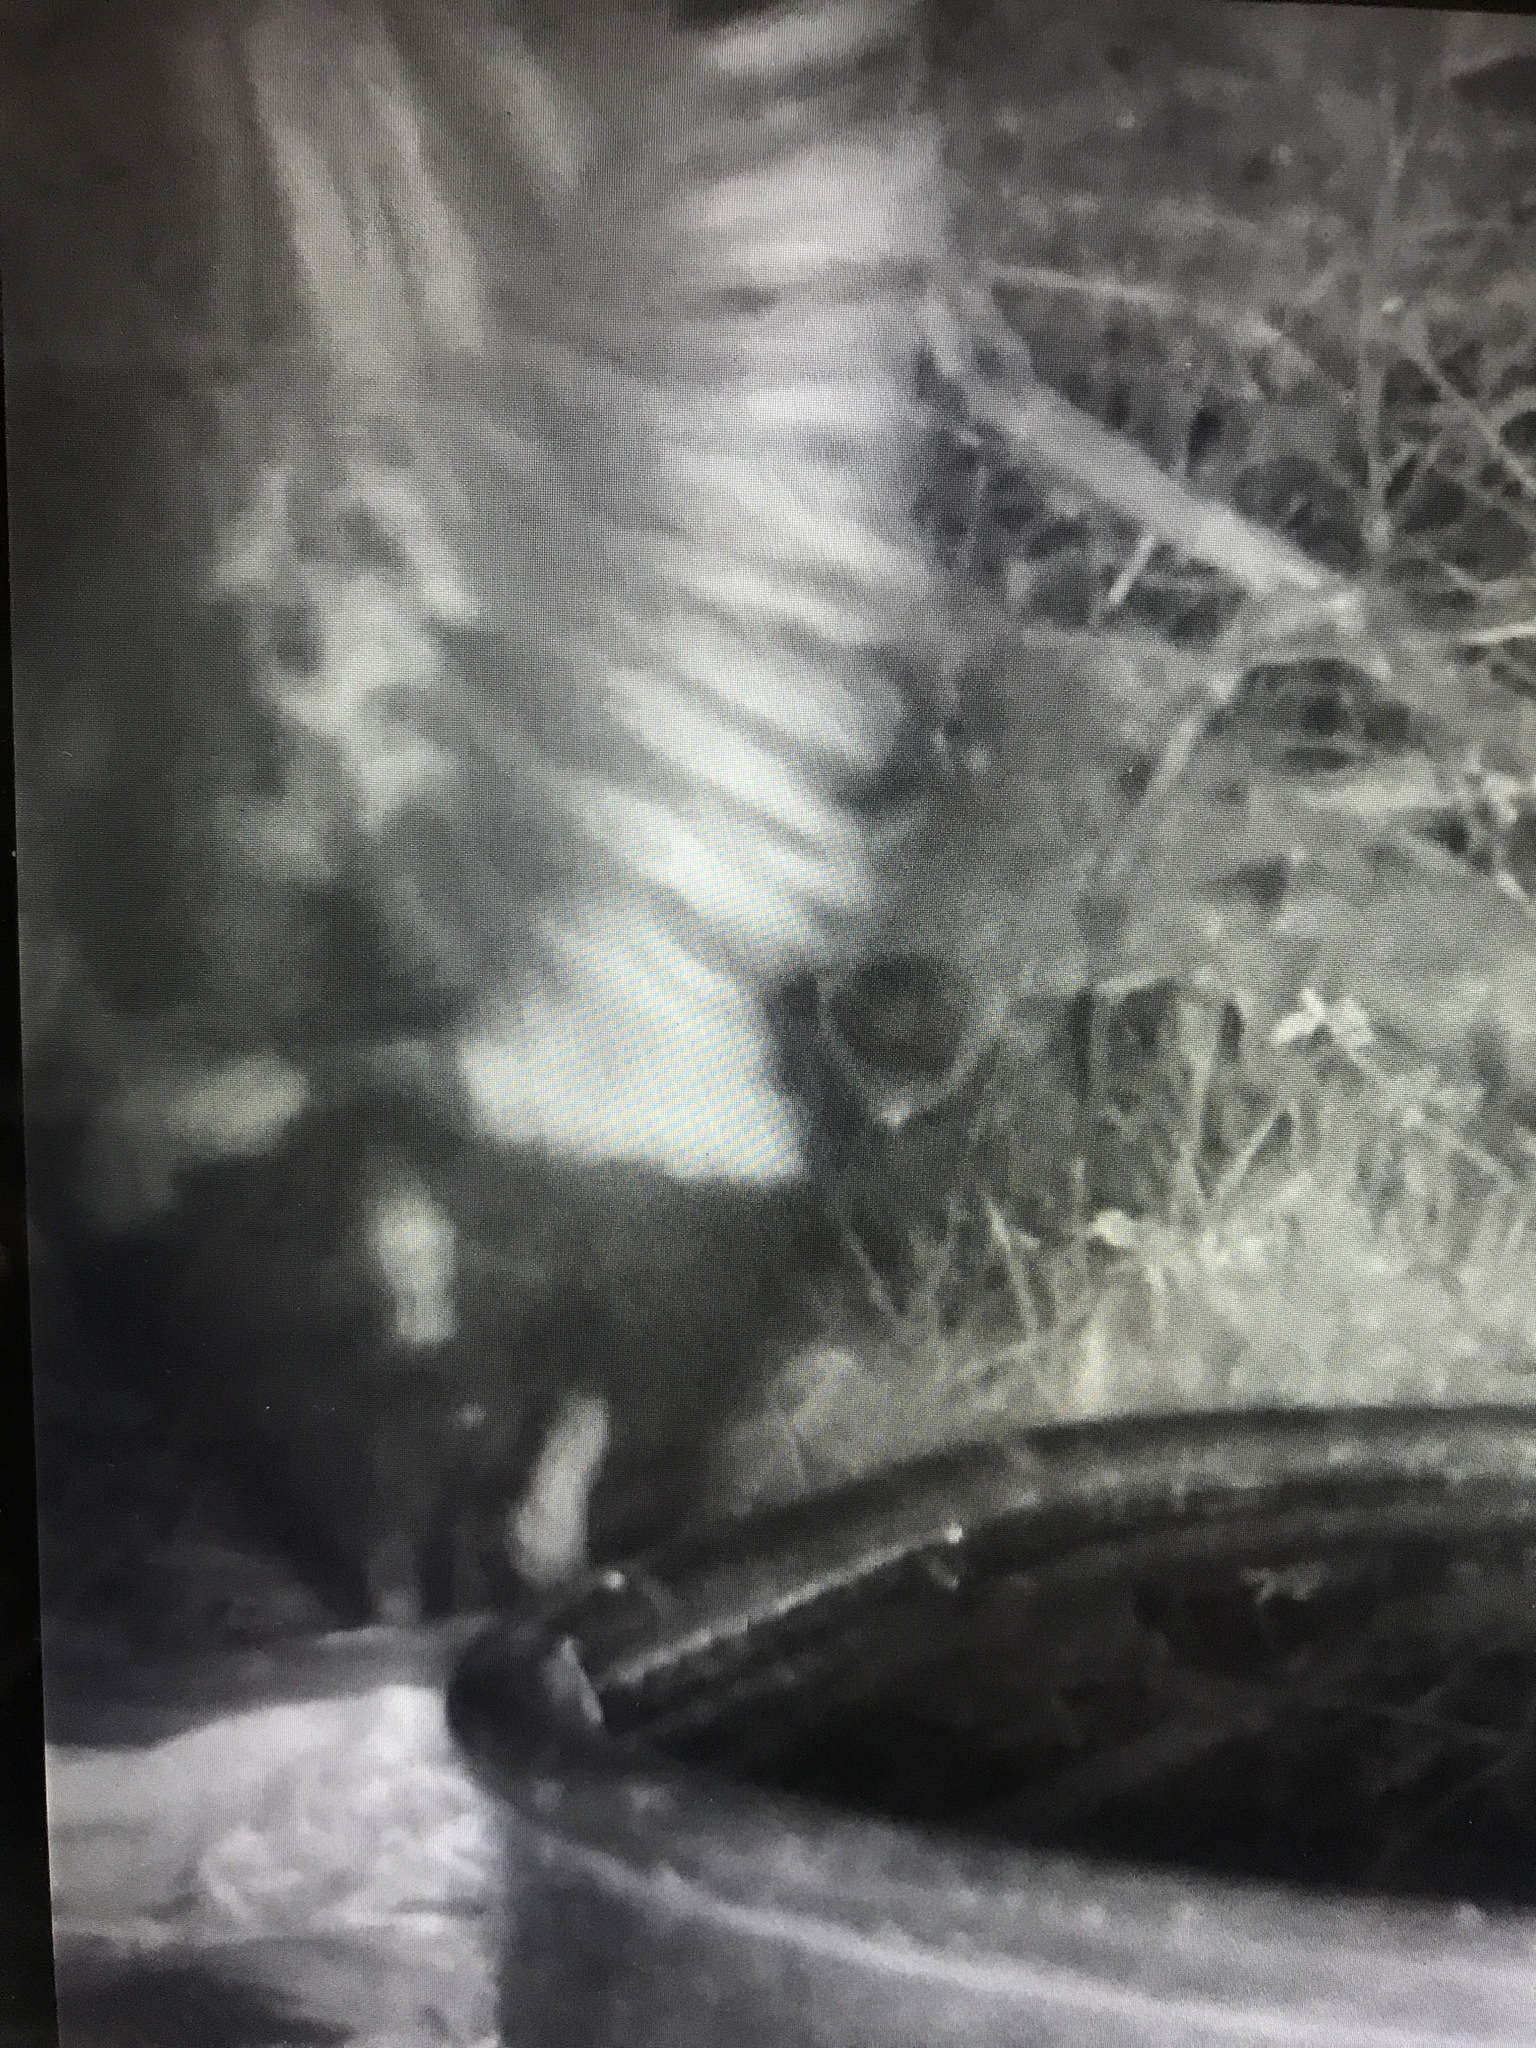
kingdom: Animalia
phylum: Chordata
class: Mammalia
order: Carnivora
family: Mephitidae
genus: Mephitis
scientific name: Mephitis mephitis
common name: Striped skunk
